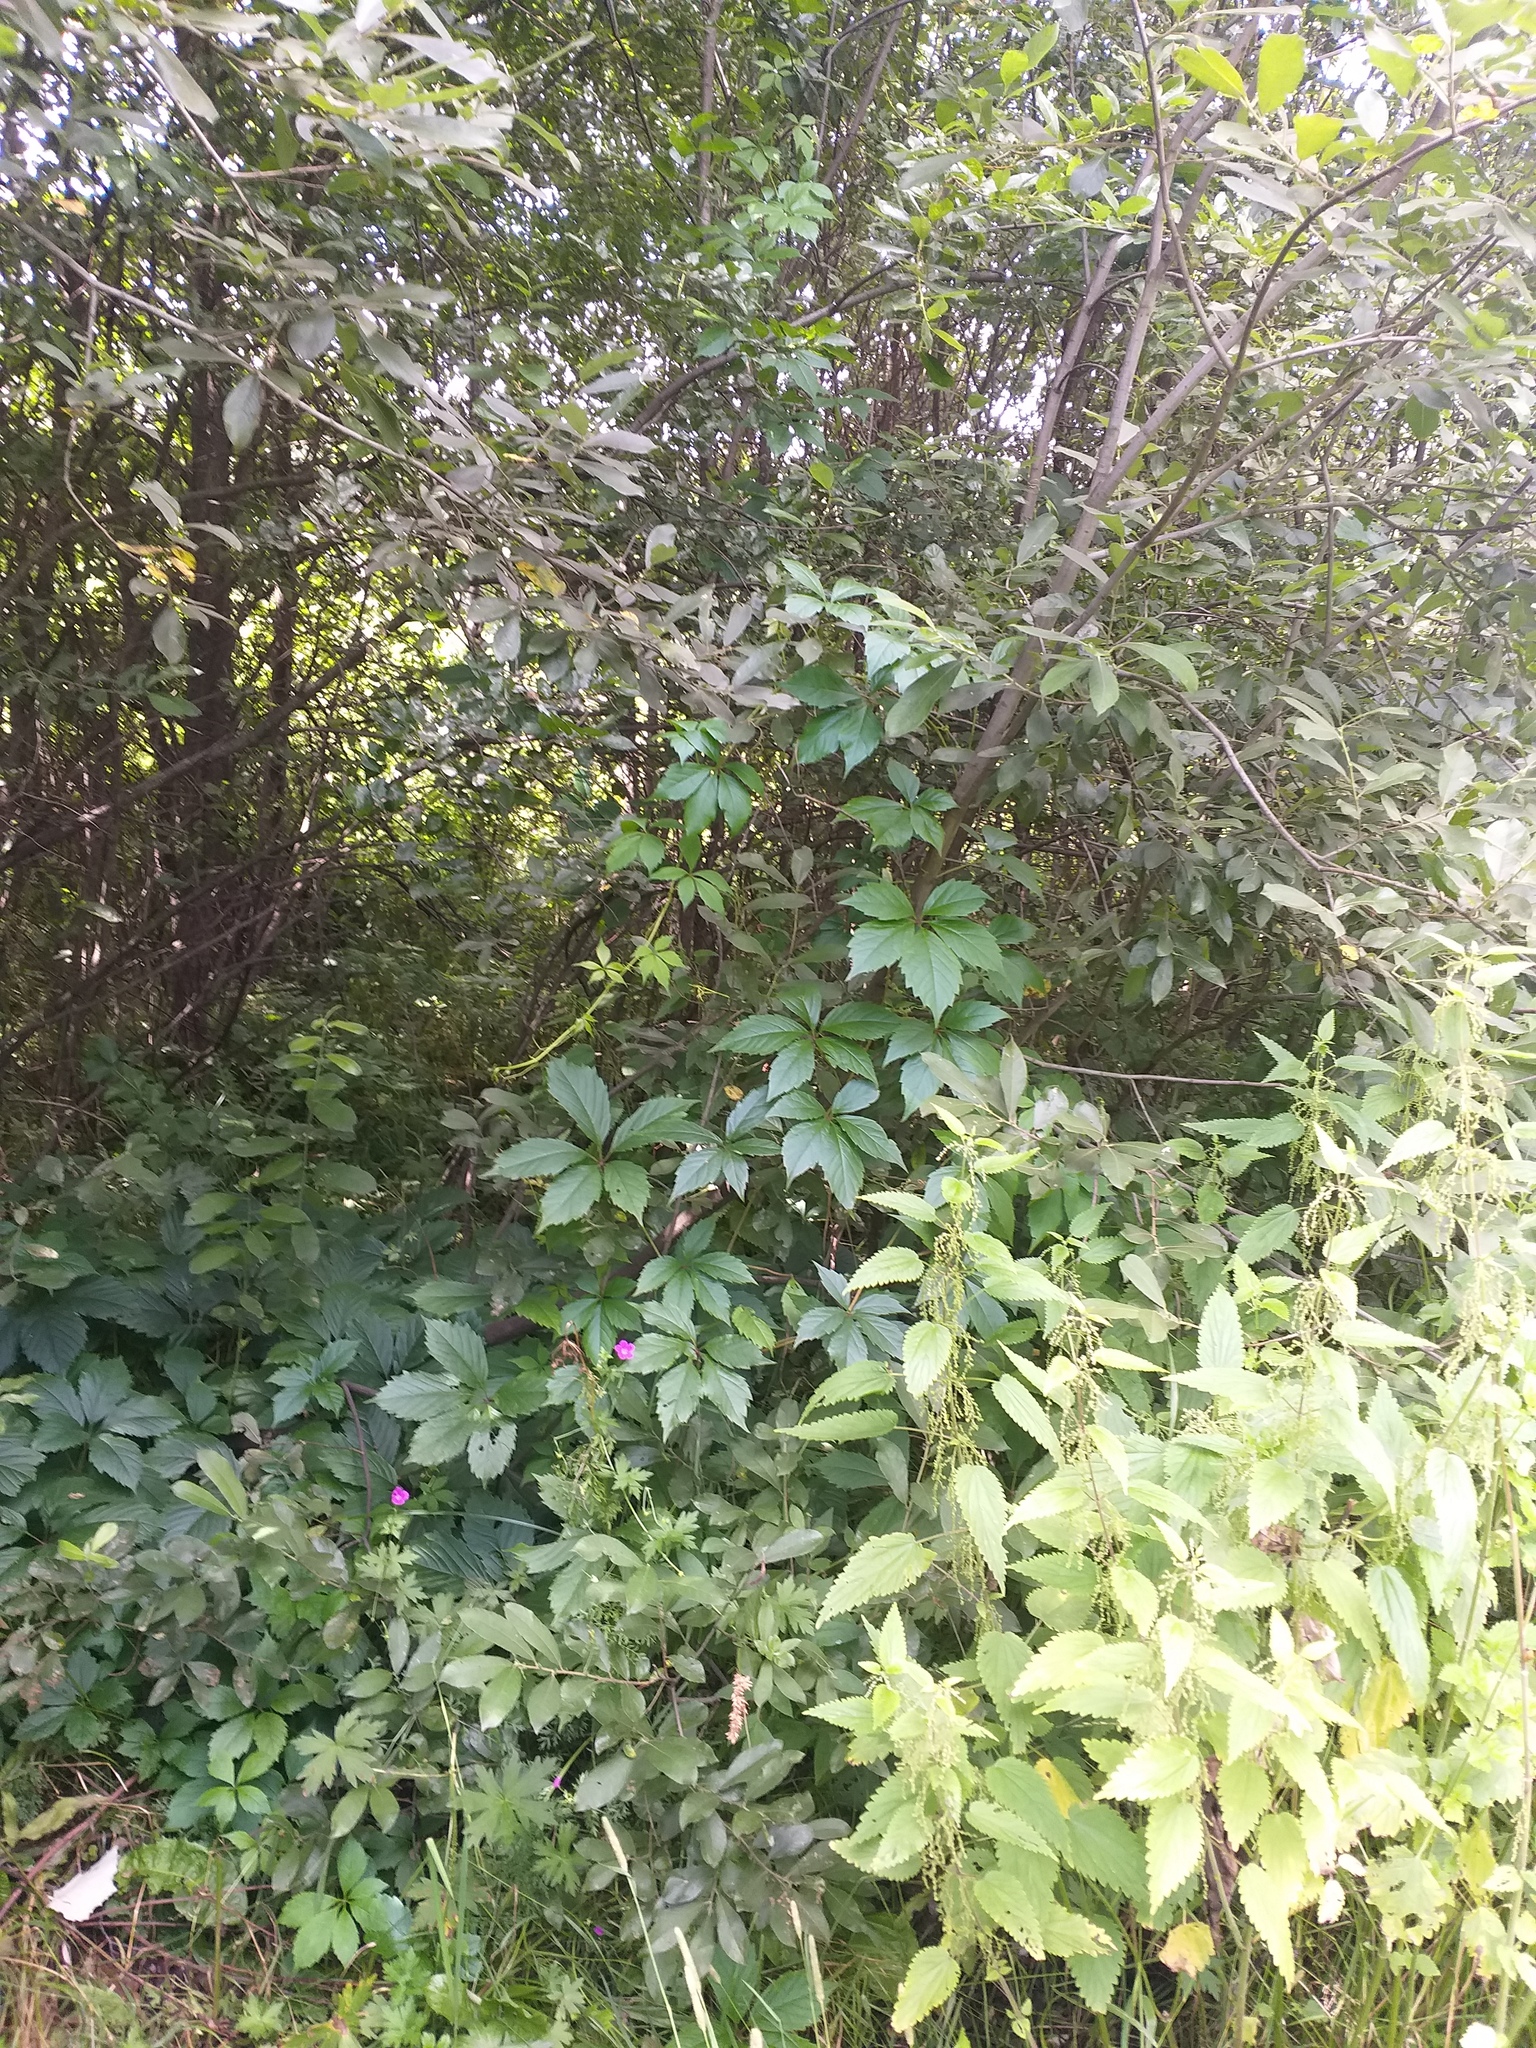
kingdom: Plantae
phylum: Tracheophyta
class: Magnoliopsida
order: Vitales
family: Vitaceae
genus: Parthenocissus
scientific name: Parthenocissus inserta
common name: False virginia-creeper
